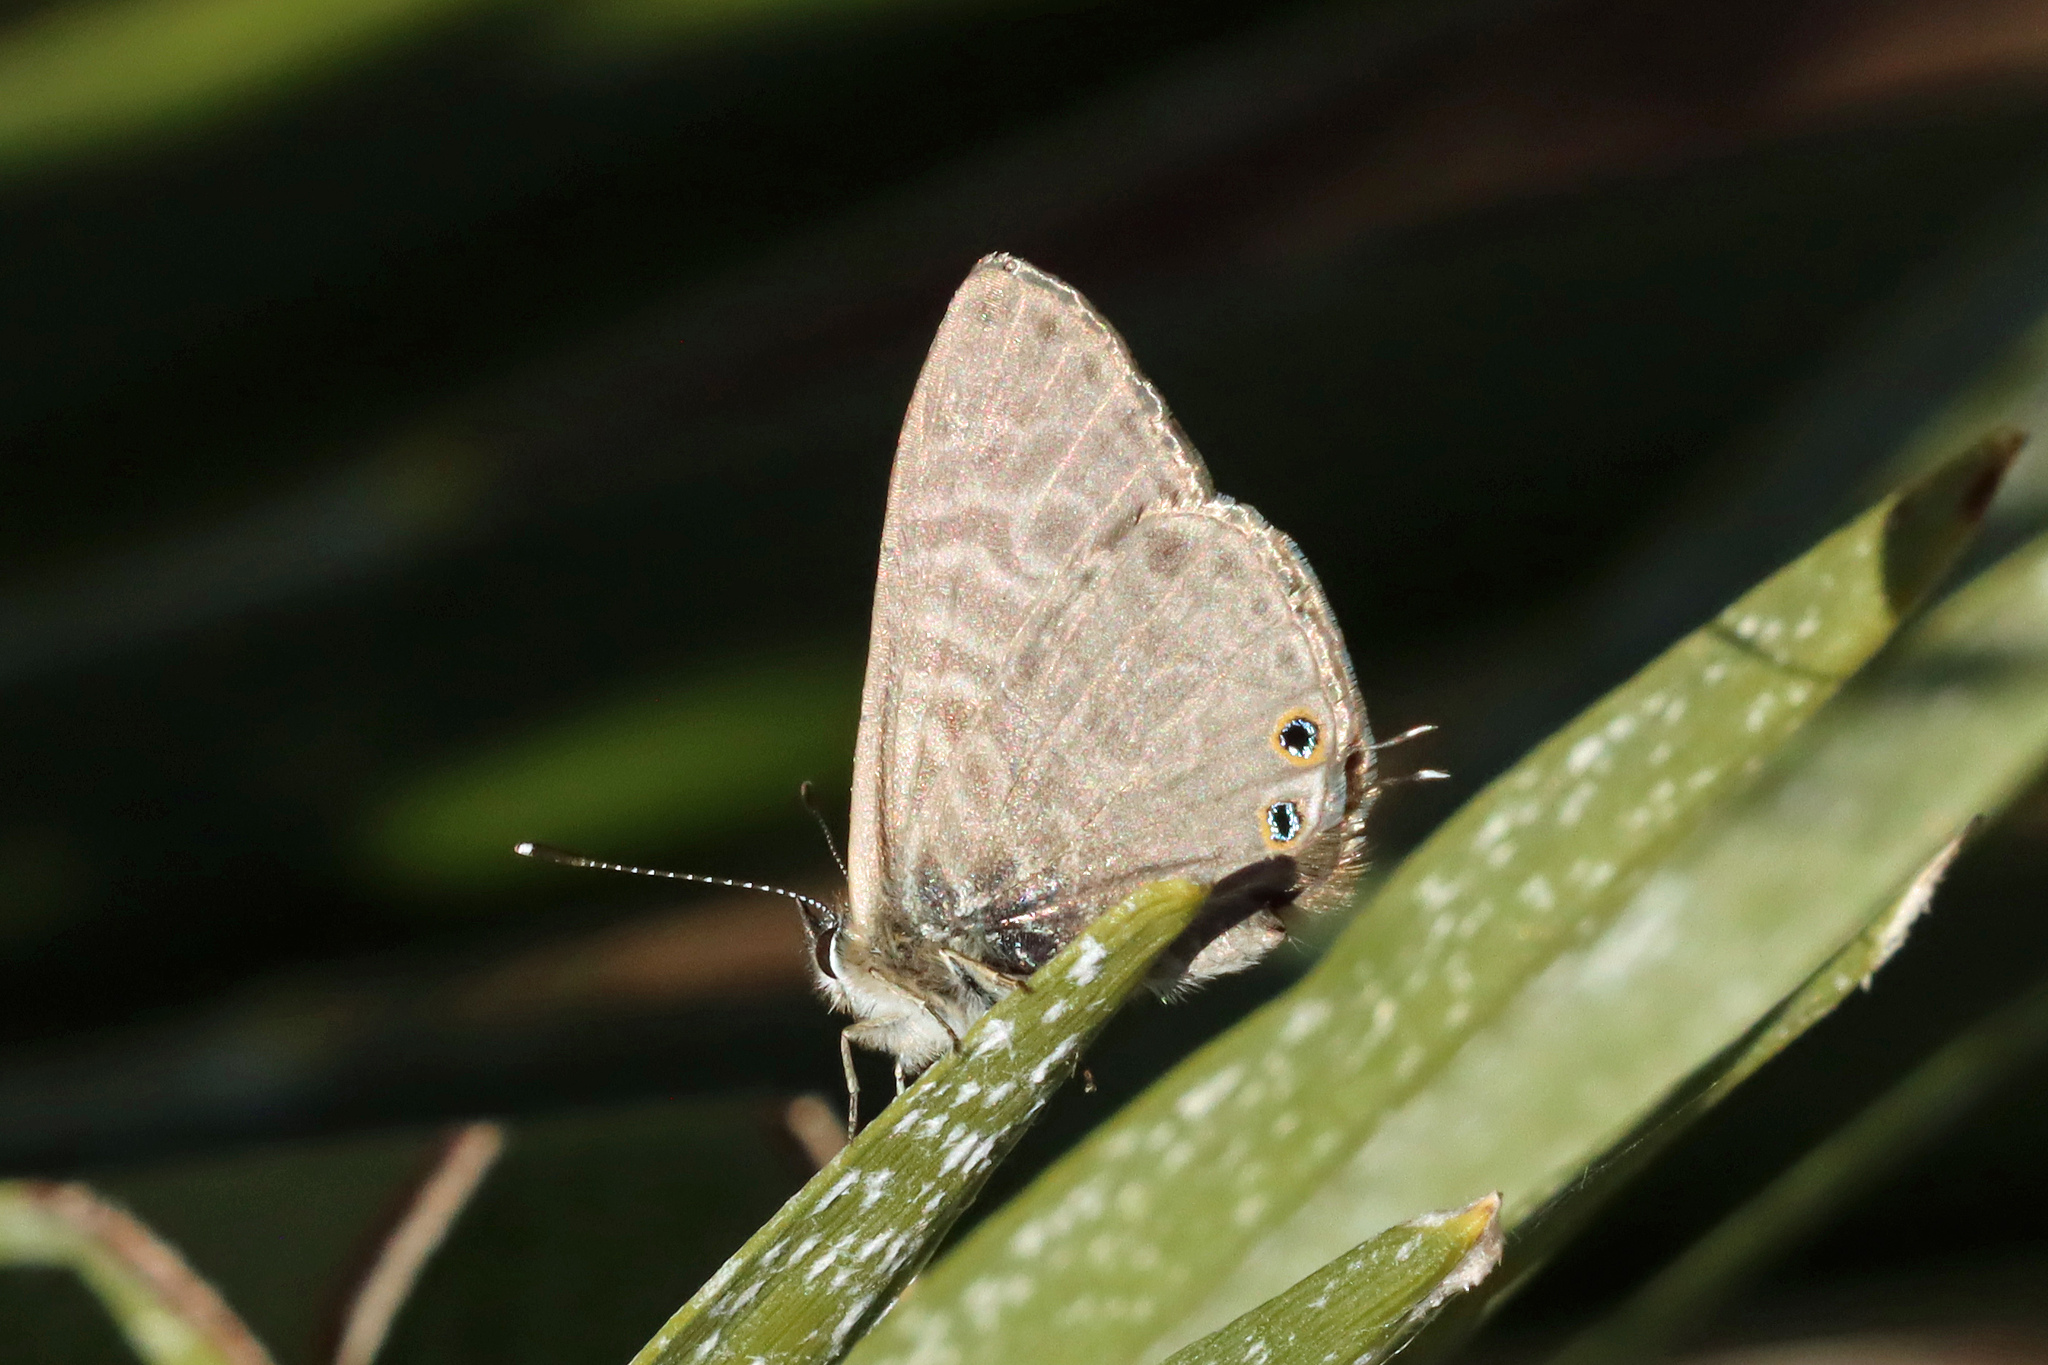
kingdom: Animalia
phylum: Arthropoda
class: Insecta
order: Lepidoptera
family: Lycaenidae
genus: Leptotes
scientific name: Leptotes pirithous
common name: Lang's short-tailed blue
